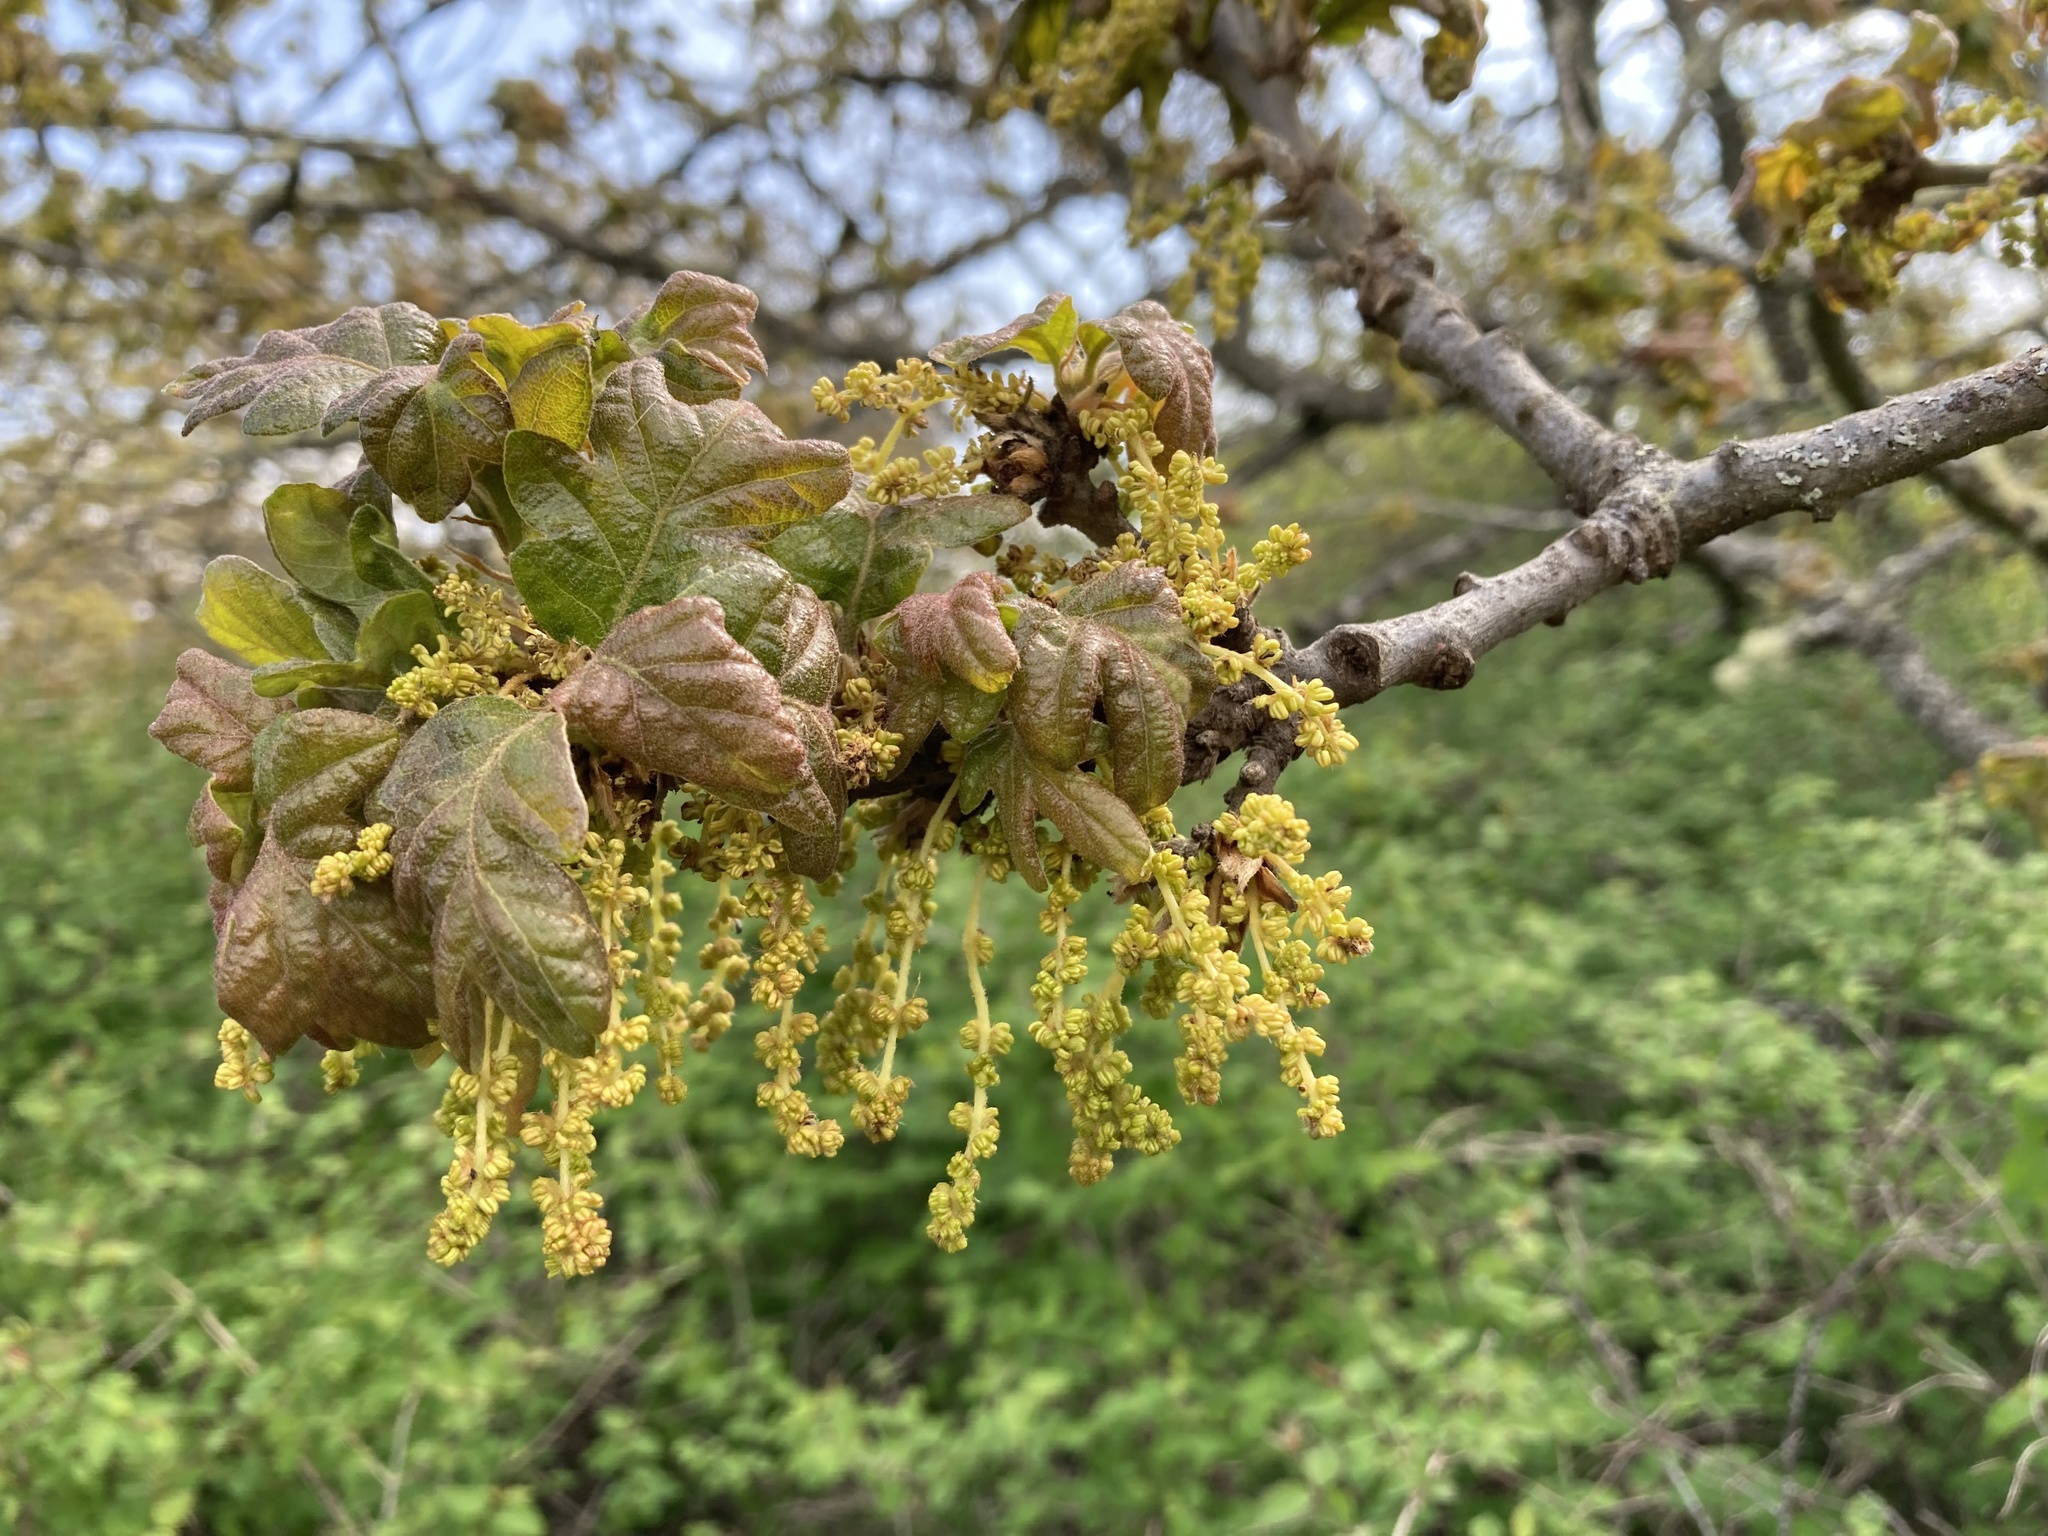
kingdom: Plantae
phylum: Tracheophyta
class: Magnoliopsida
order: Fagales
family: Fagaceae
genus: Quercus
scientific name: Quercus garryana
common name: Garry oak
